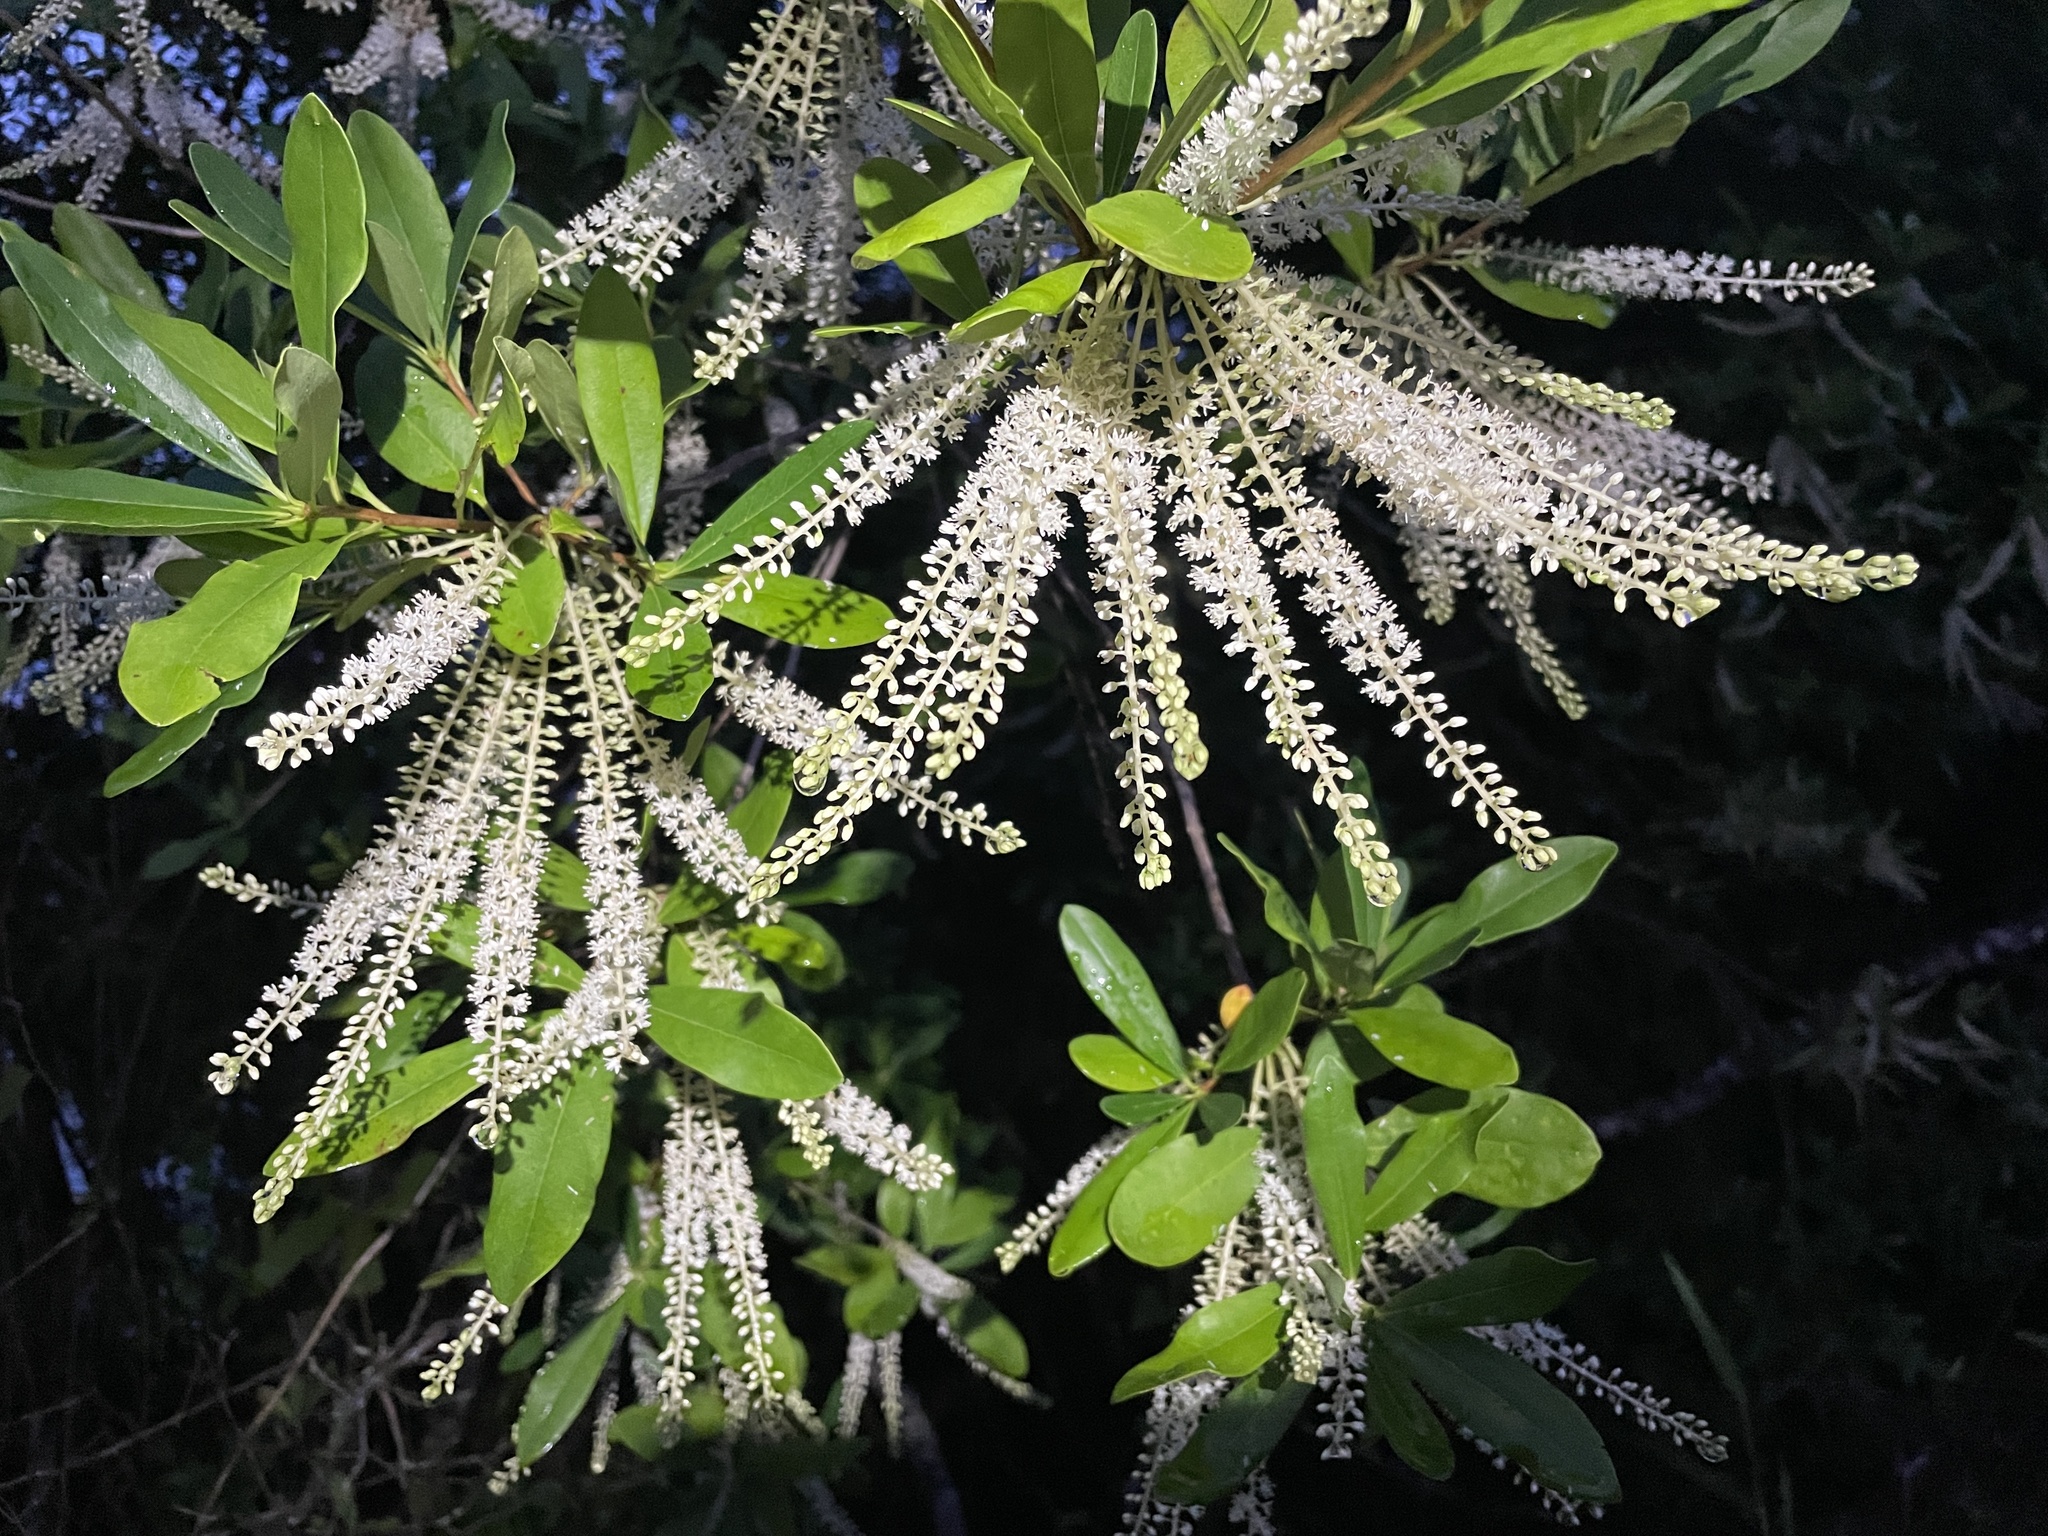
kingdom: Plantae
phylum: Tracheophyta
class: Magnoliopsida
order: Ericales
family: Cyrillaceae
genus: Cyrilla
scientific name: Cyrilla racemiflora
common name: Black titi
